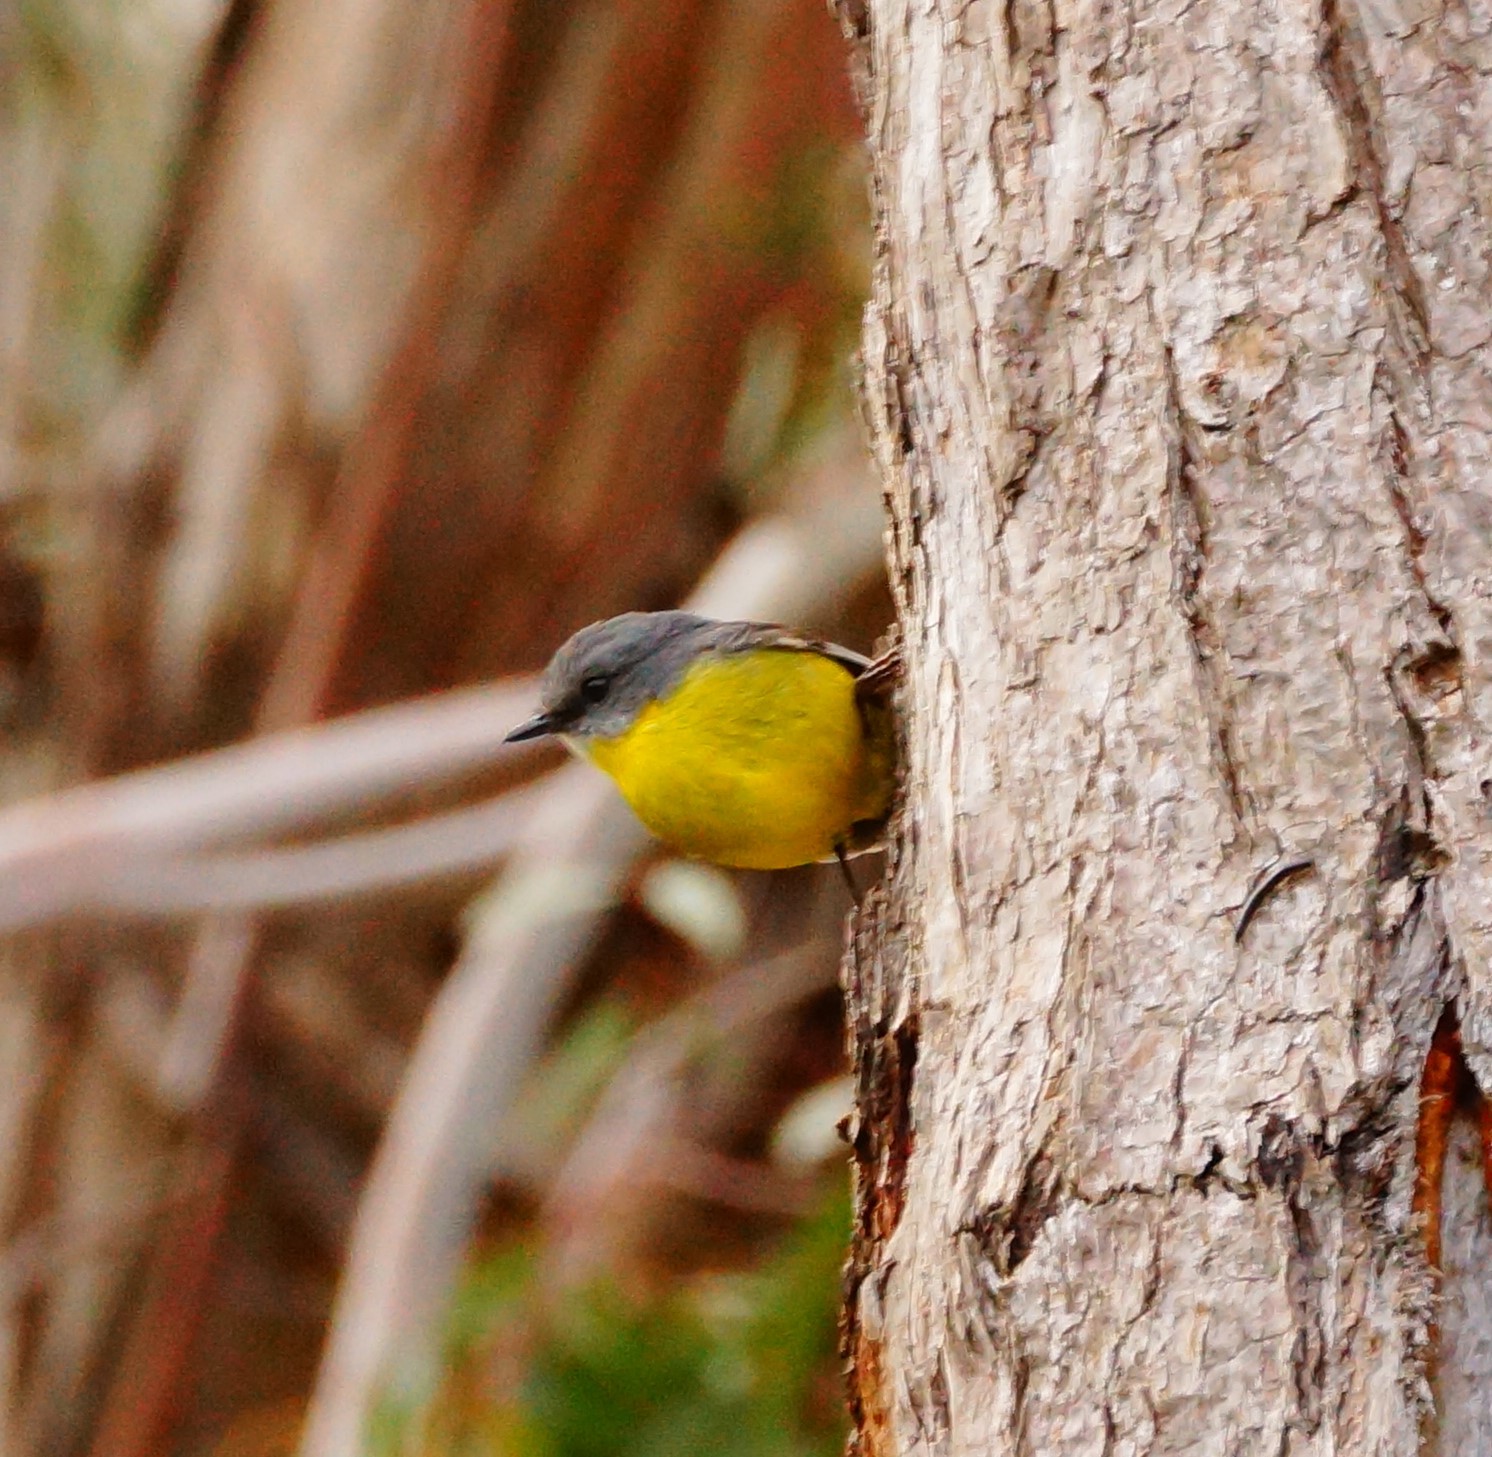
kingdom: Animalia
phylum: Chordata
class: Aves
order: Passeriformes
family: Petroicidae
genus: Eopsaltria
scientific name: Eopsaltria australis
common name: Eastern yellow robin
